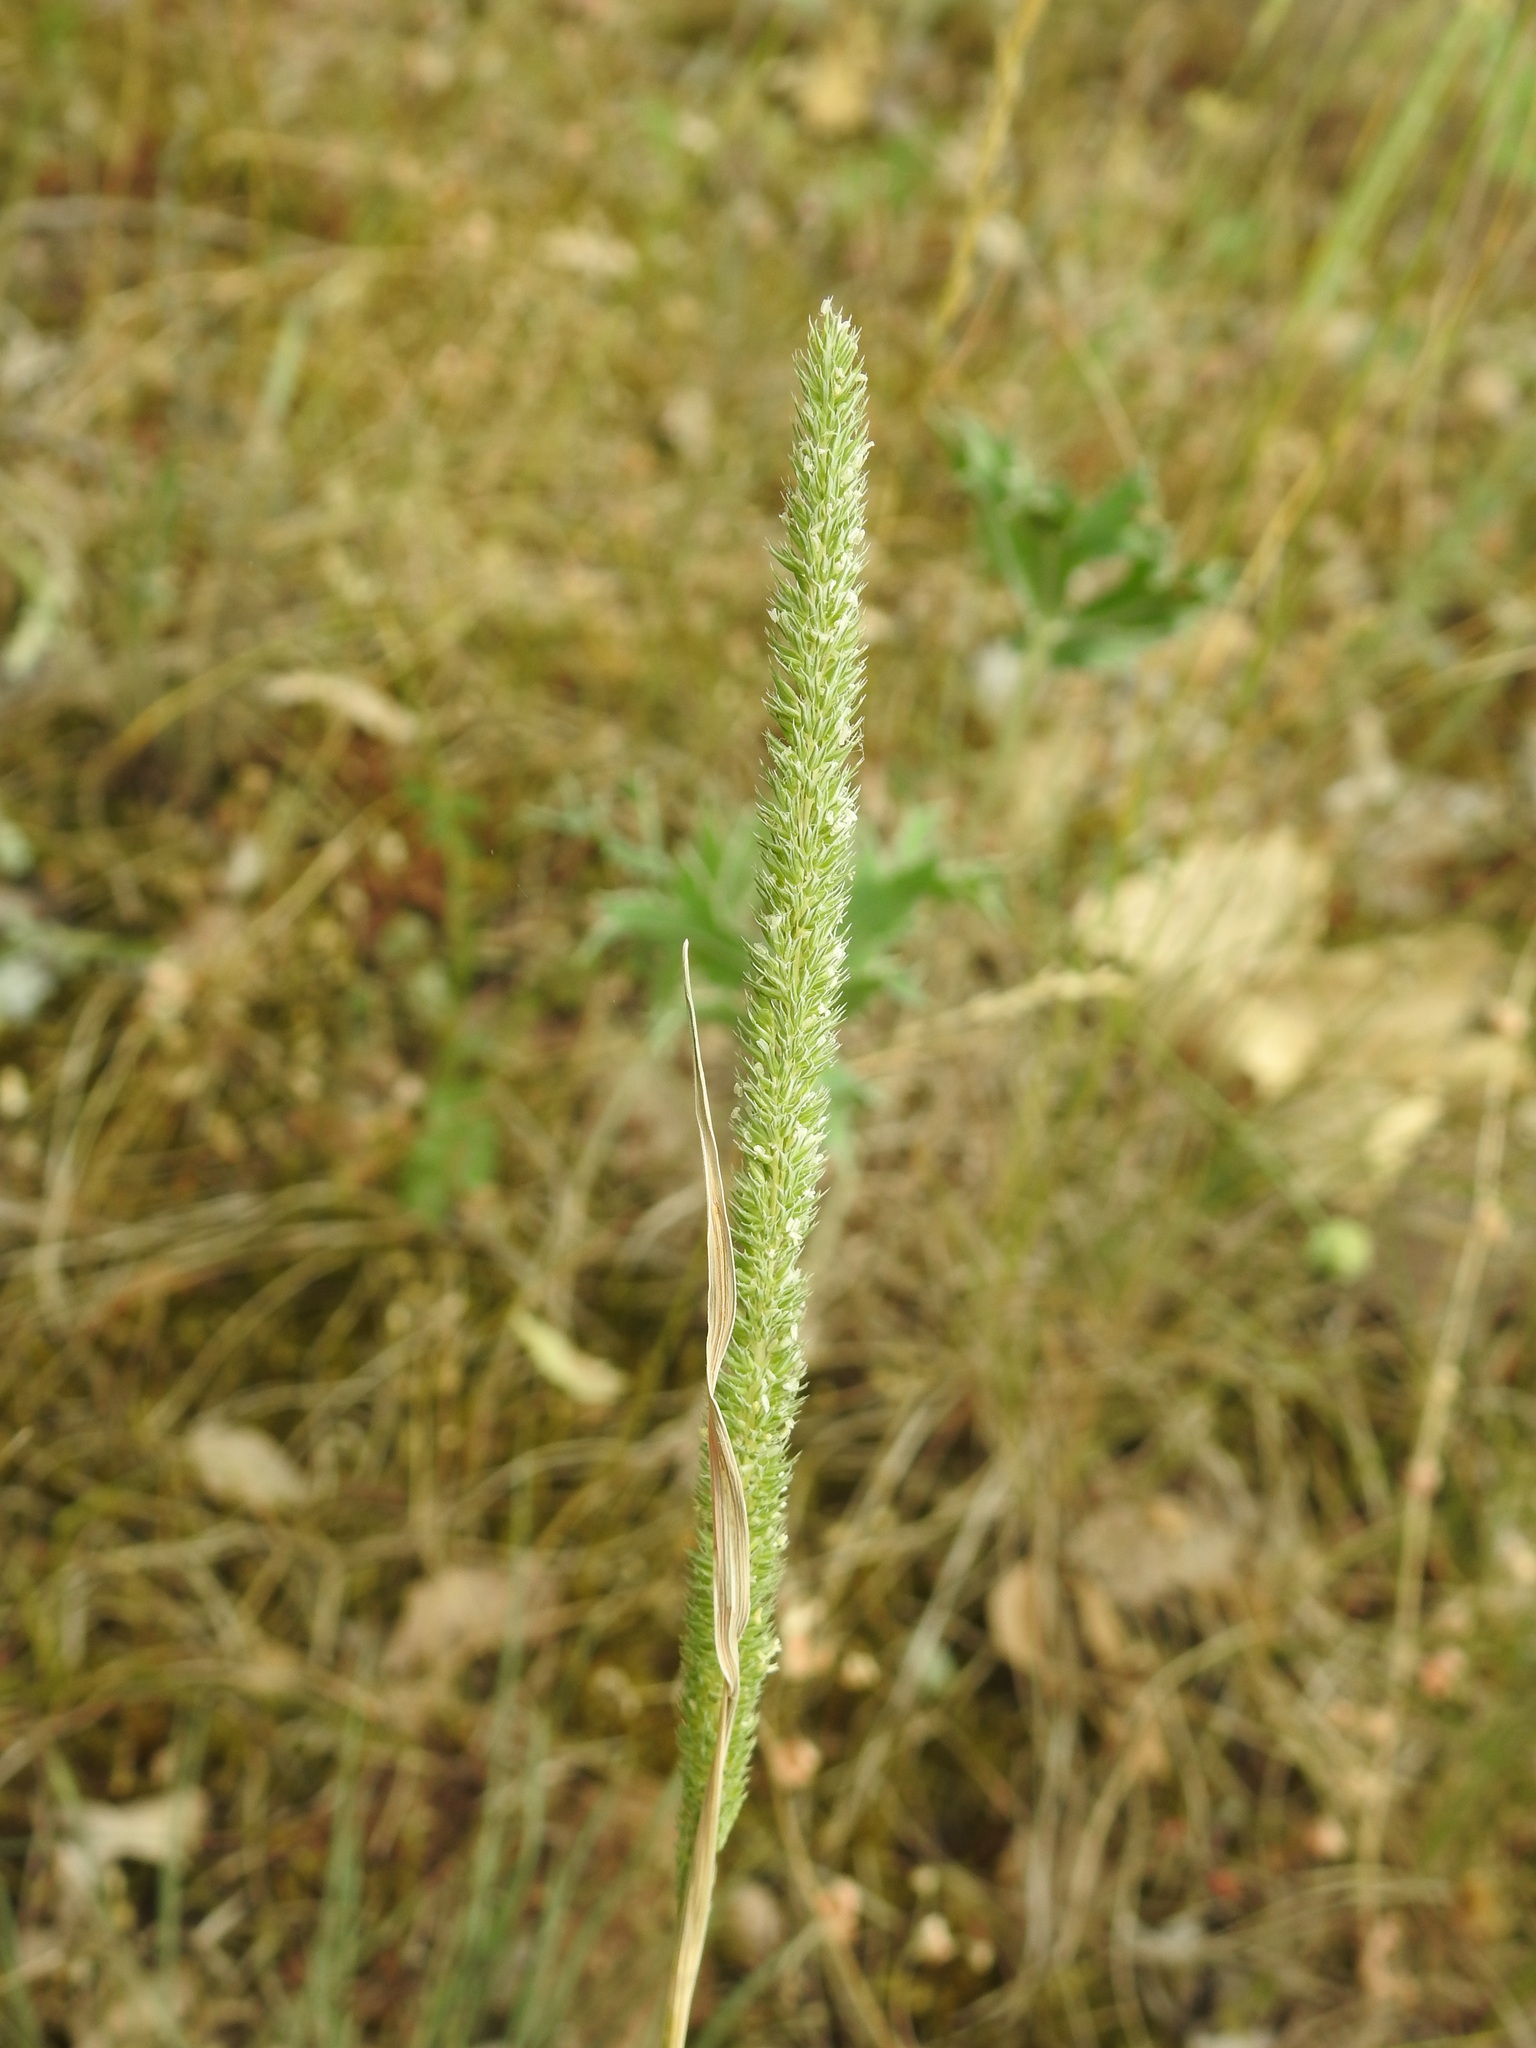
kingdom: Plantae
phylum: Tracheophyta
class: Liliopsida
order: Poales
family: Poaceae
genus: Phleum
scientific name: Phleum phleoides
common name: Purple-stem cat's-tail
